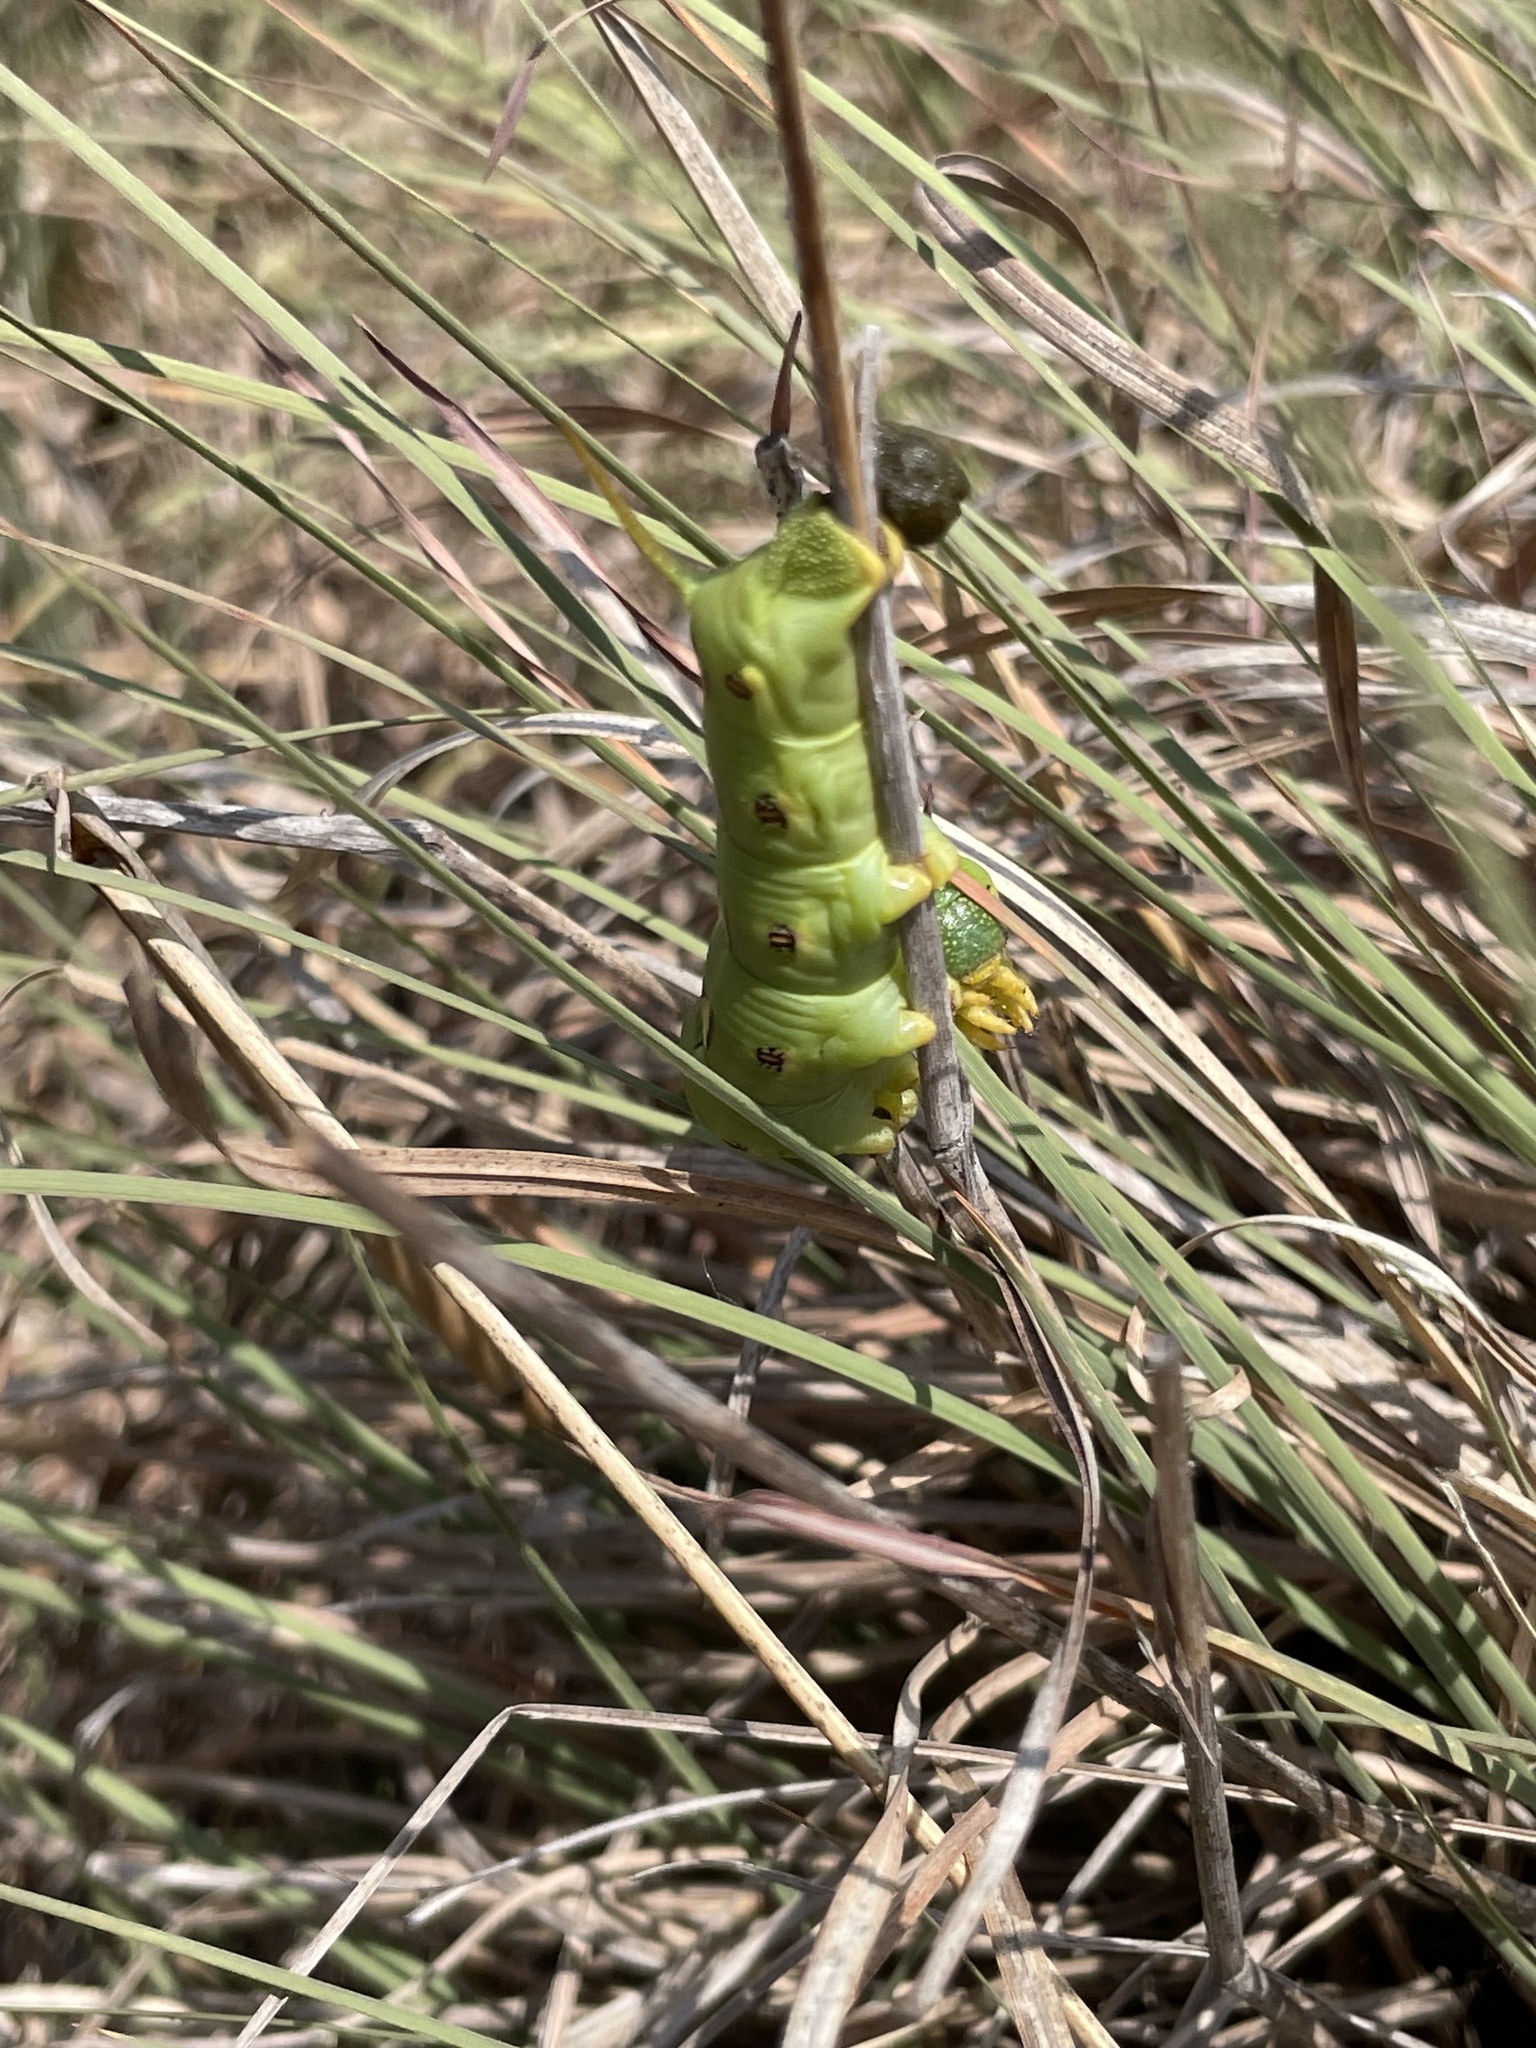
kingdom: Animalia
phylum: Arthropoda
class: Insecta
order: Lepidoptera
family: Sphingidae
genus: Hyles
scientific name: Hyles lineata
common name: White-lined sphinx
